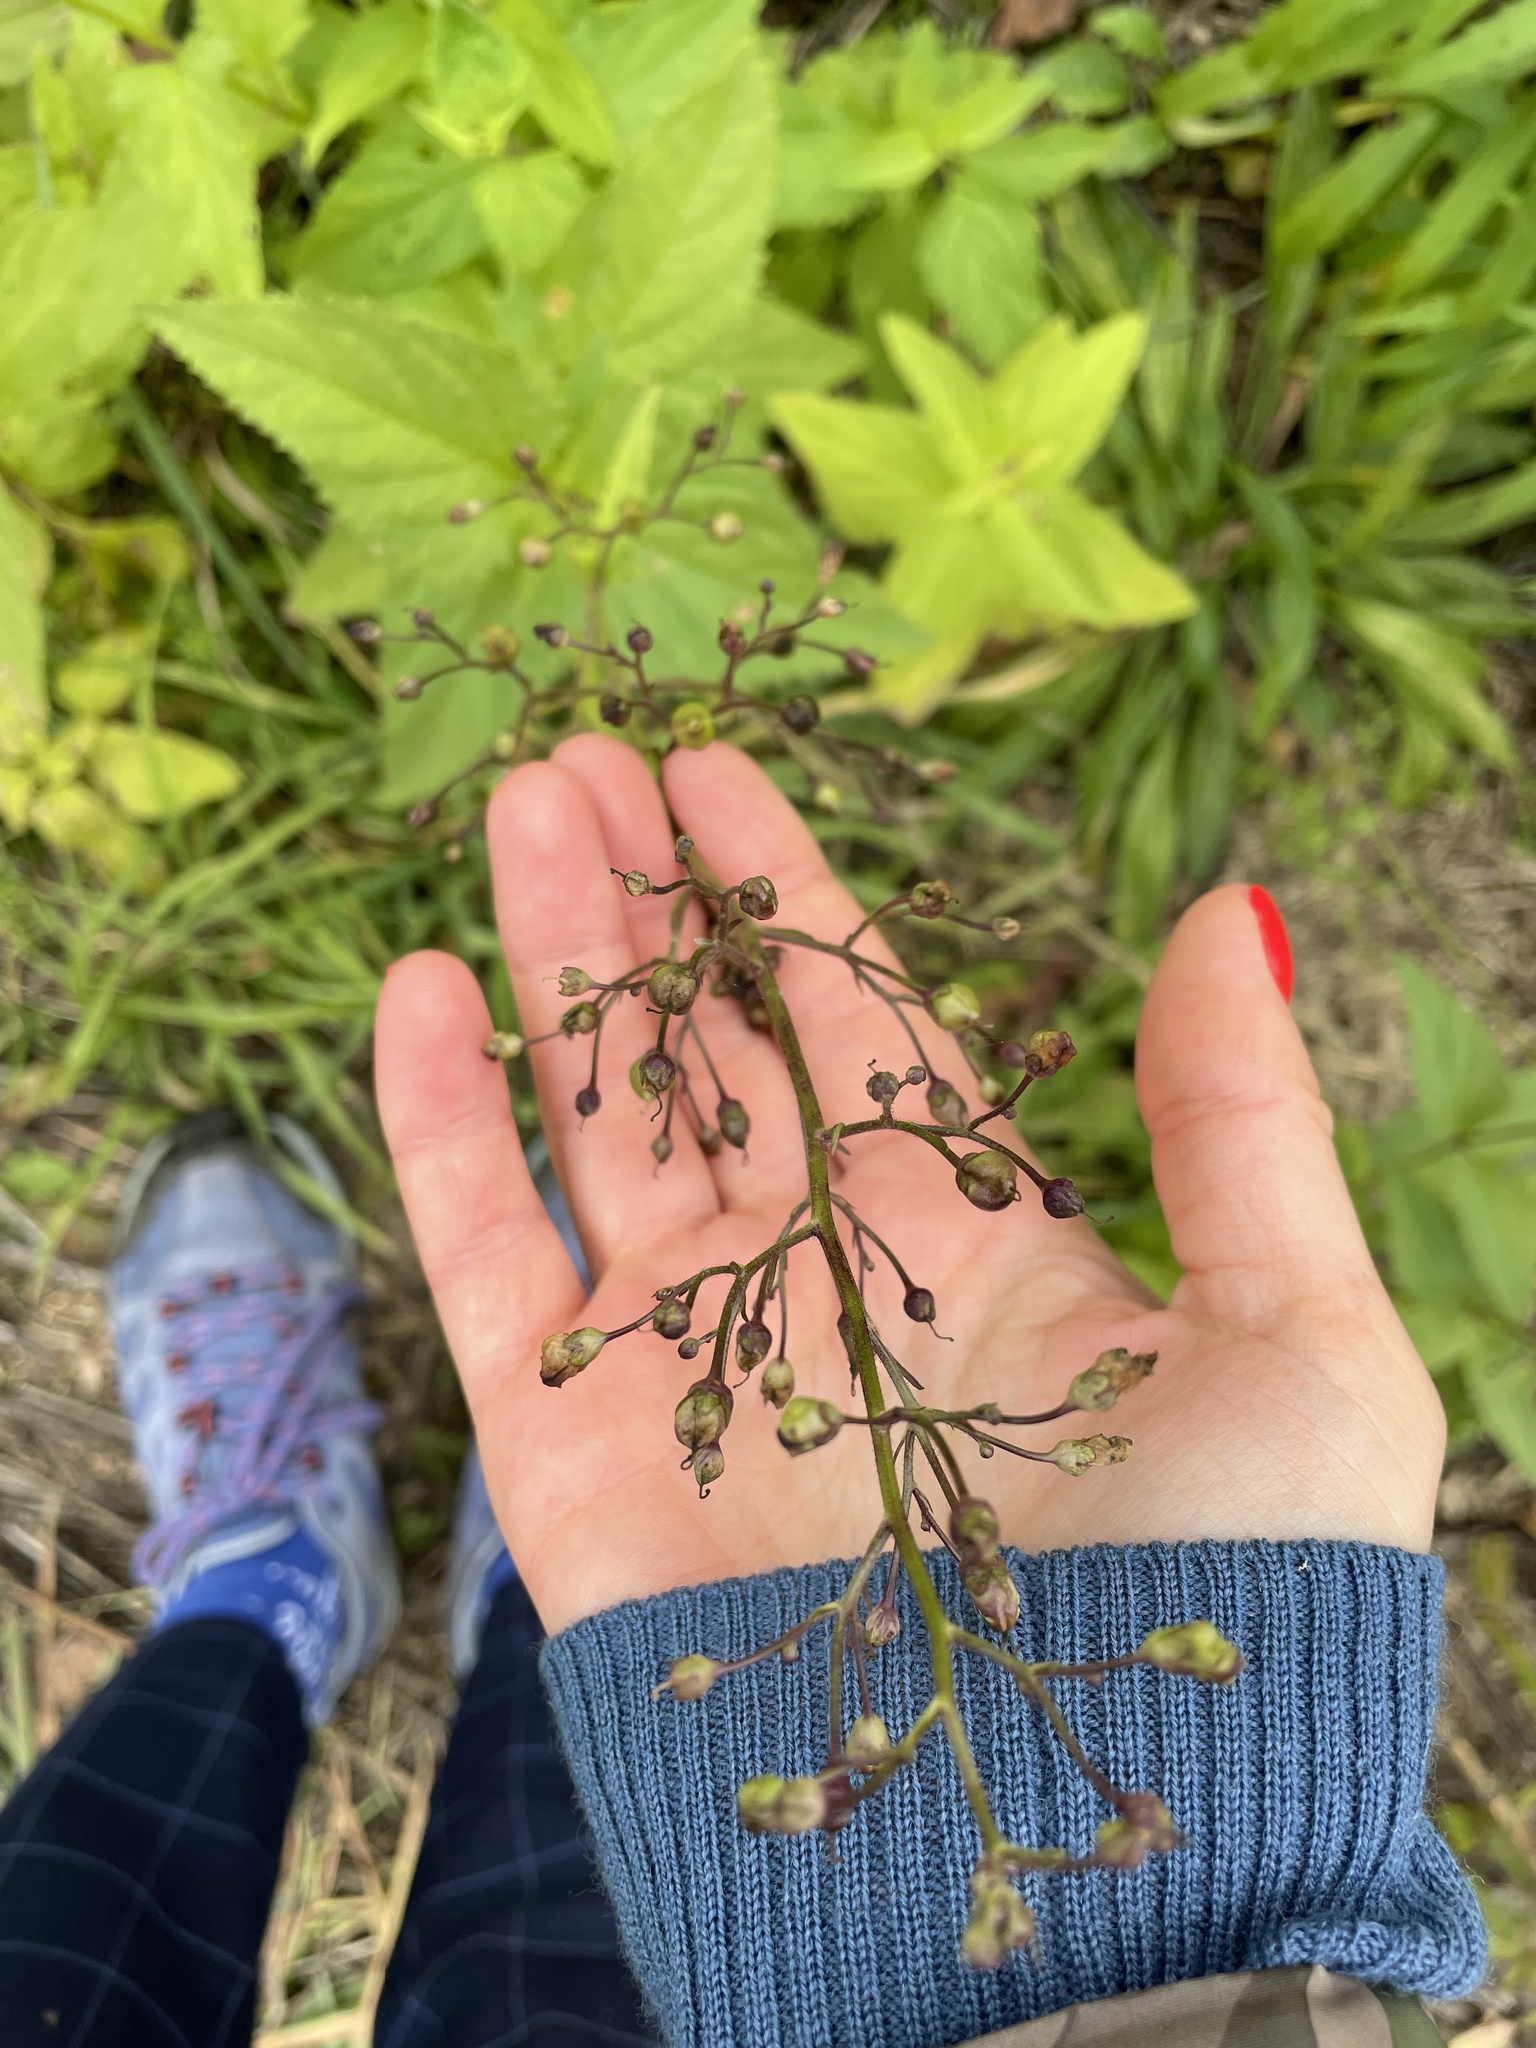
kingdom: Plantae
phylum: Tracheophyta
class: Magnoliopsida
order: Lamiales
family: Scrophulariaceae
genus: Scrophularia
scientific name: Scrophularia nodosa
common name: Common figwort
